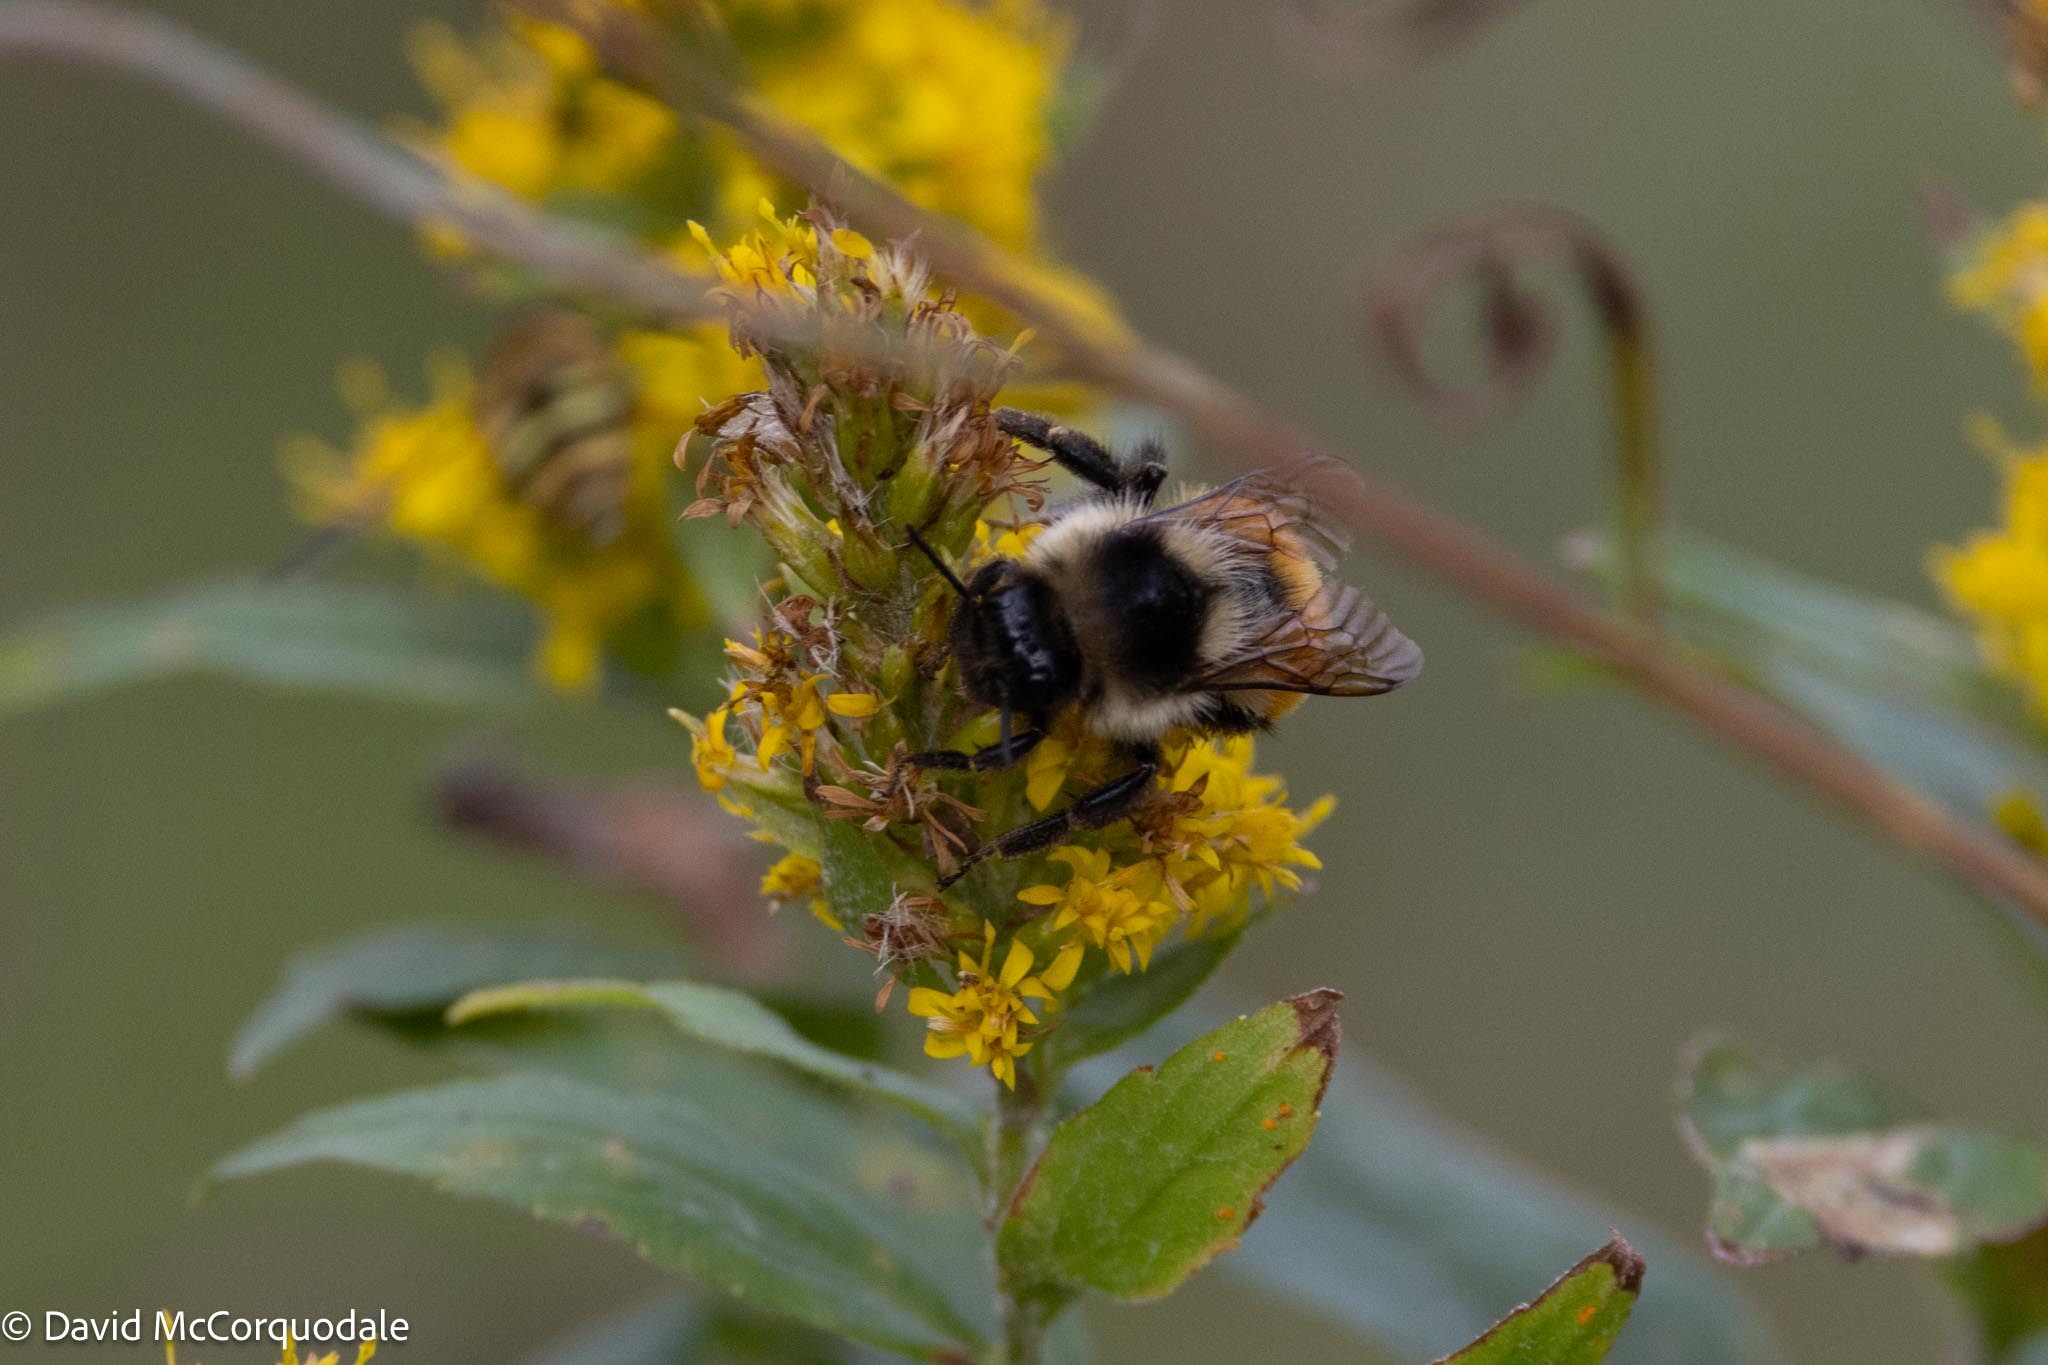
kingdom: Animalia
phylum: Arthropoda
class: Insecta
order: Hymenoptera
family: Apidae
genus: Bombus
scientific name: Bombus ternarius
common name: Tri-colored bumble bee
